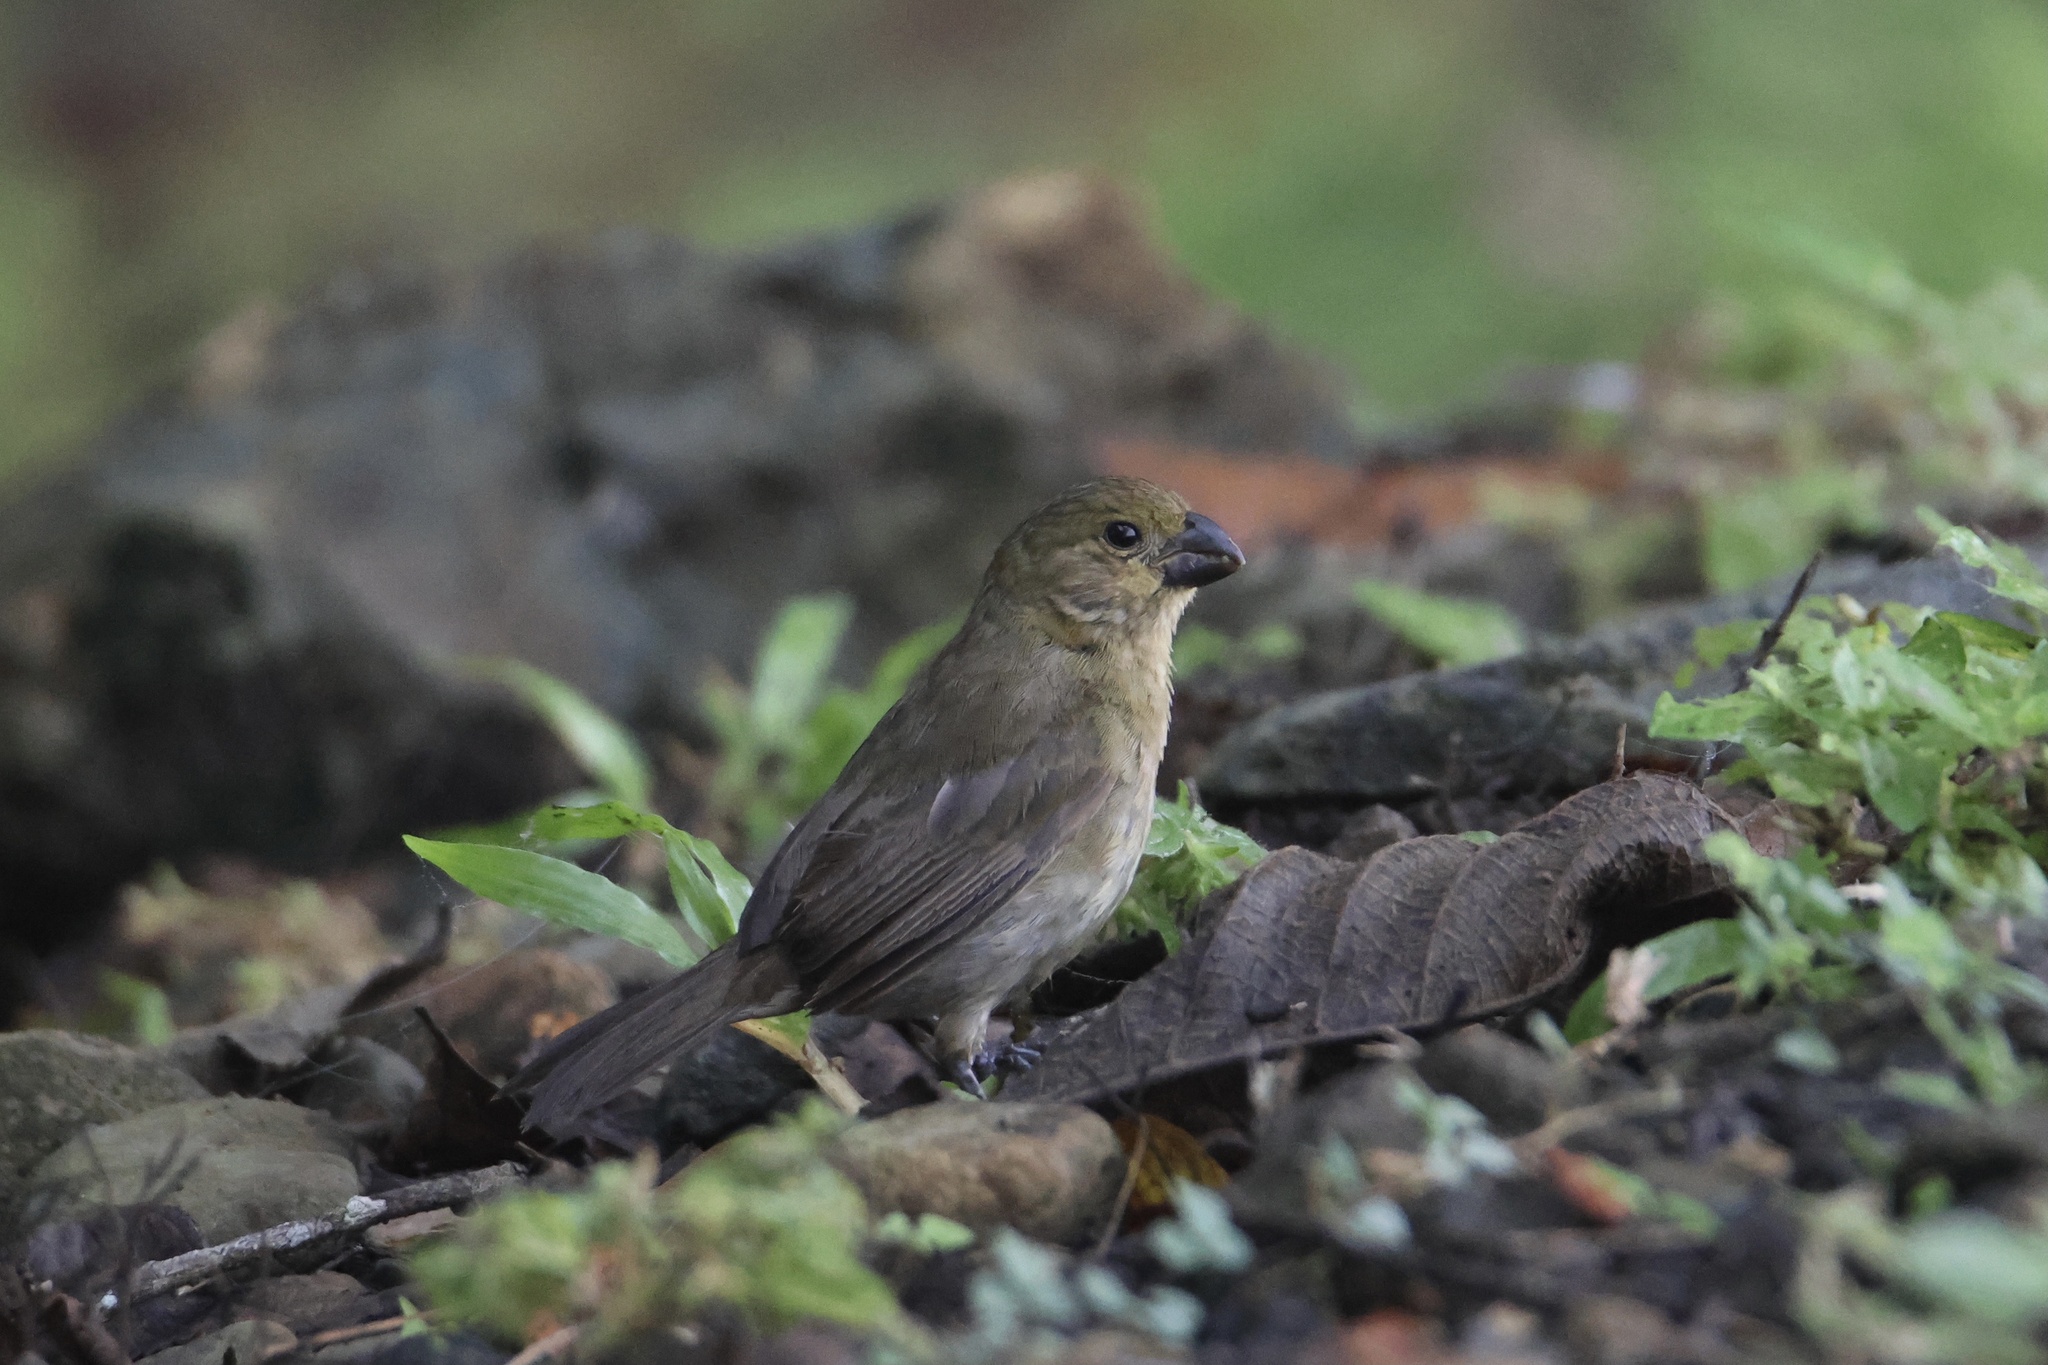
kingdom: Animalia
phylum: Chordata
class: Aves
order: Passeriformes
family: Thraupidae
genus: Sporophila
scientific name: Sporophila corvina
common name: Variable seedeater
